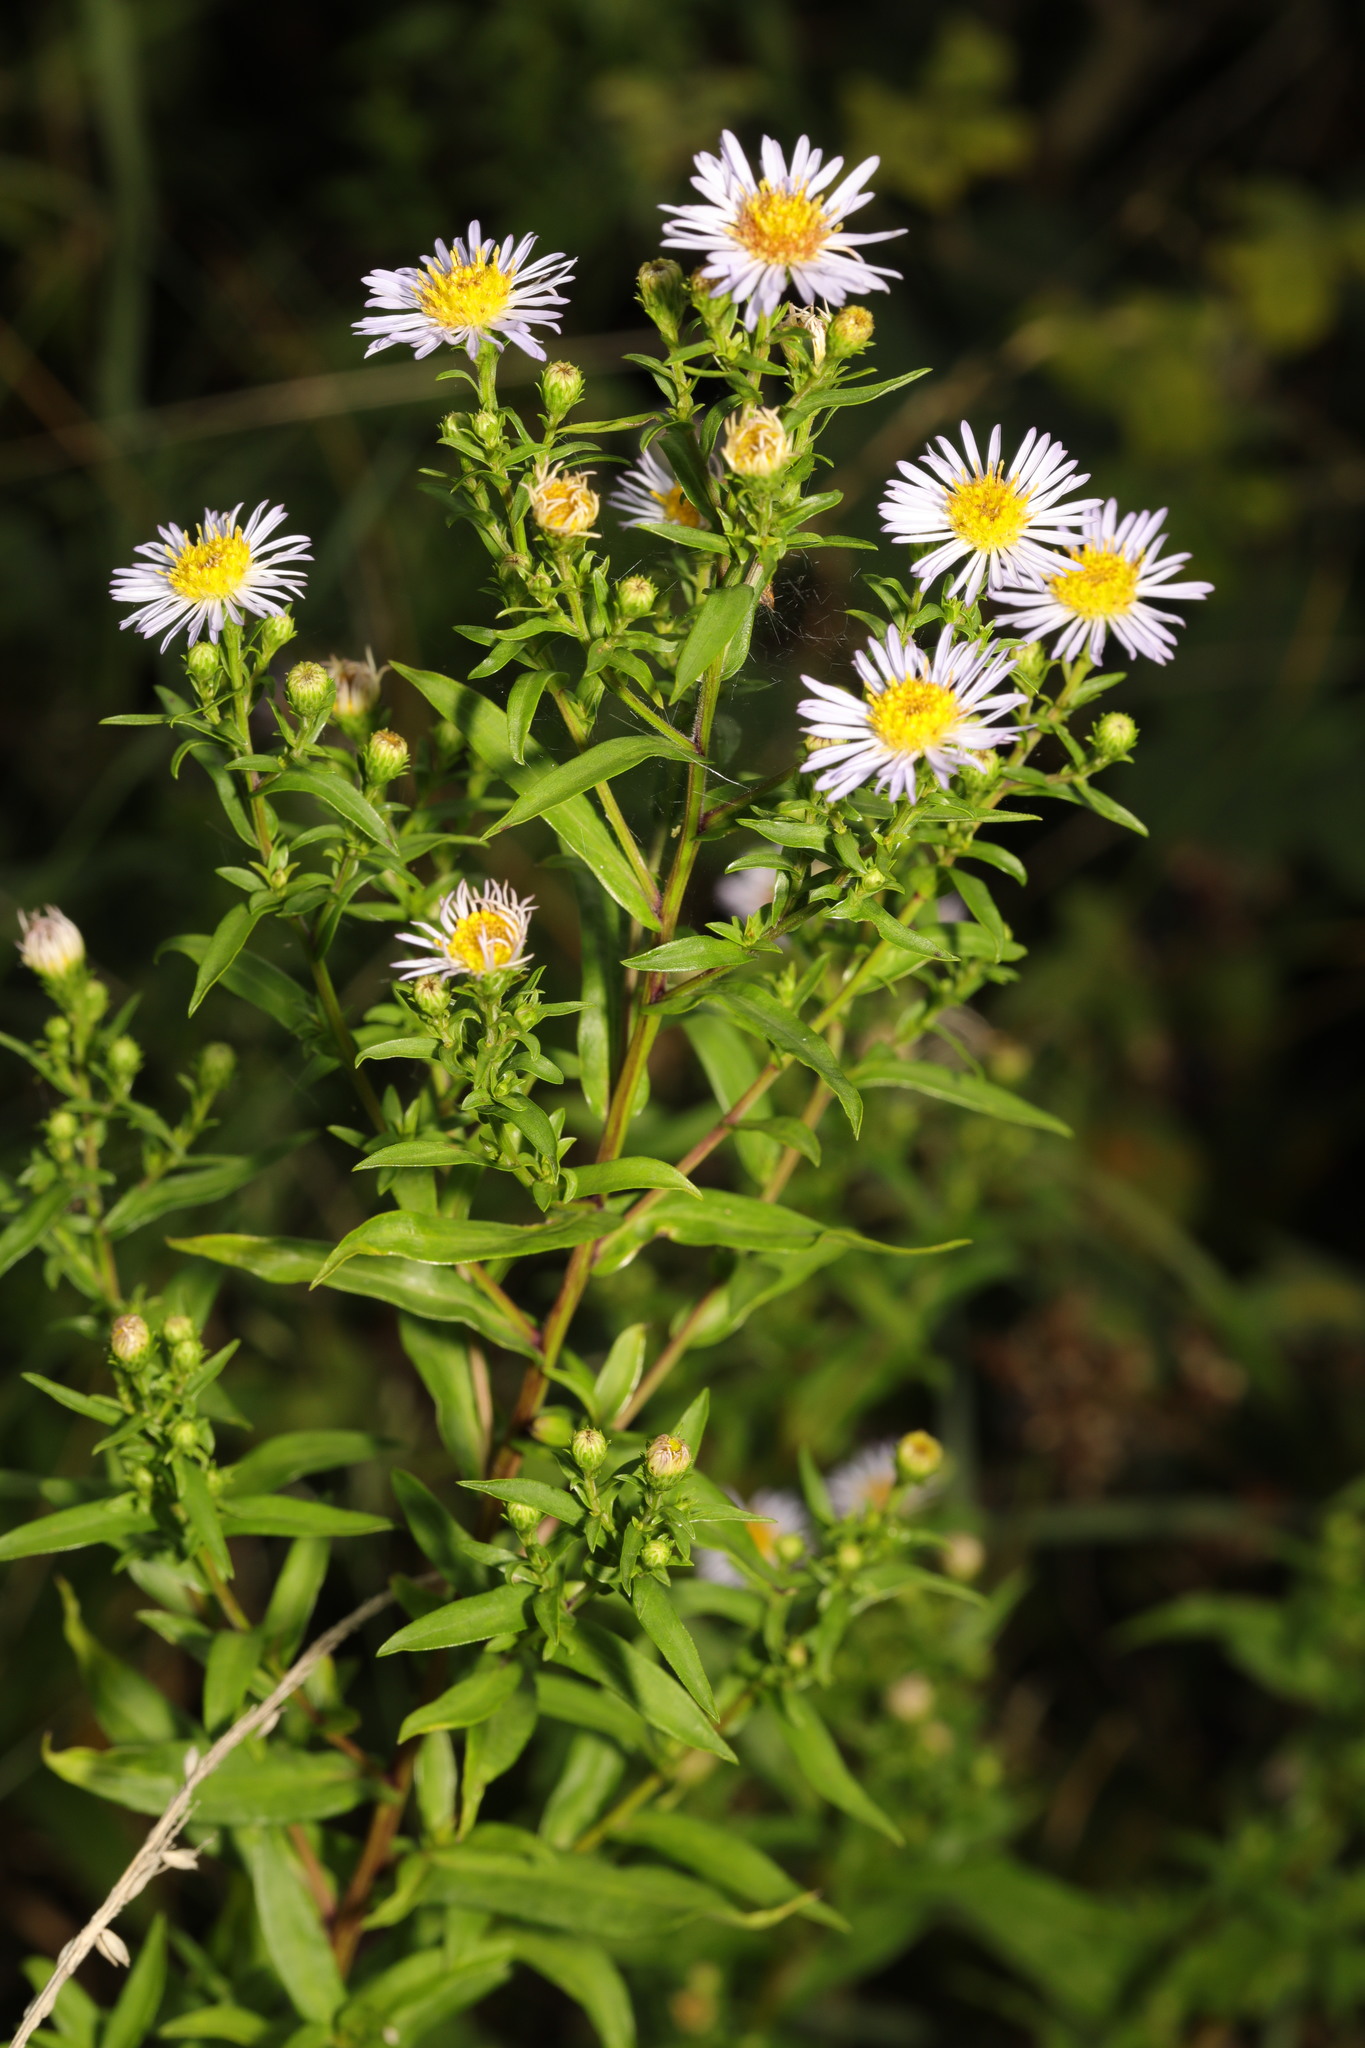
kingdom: Plantae
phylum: Tracheophyta
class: Magnoliopsida
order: Asterales
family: Asteraceae
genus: Symphyotrichum
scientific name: Symphyotrichum
